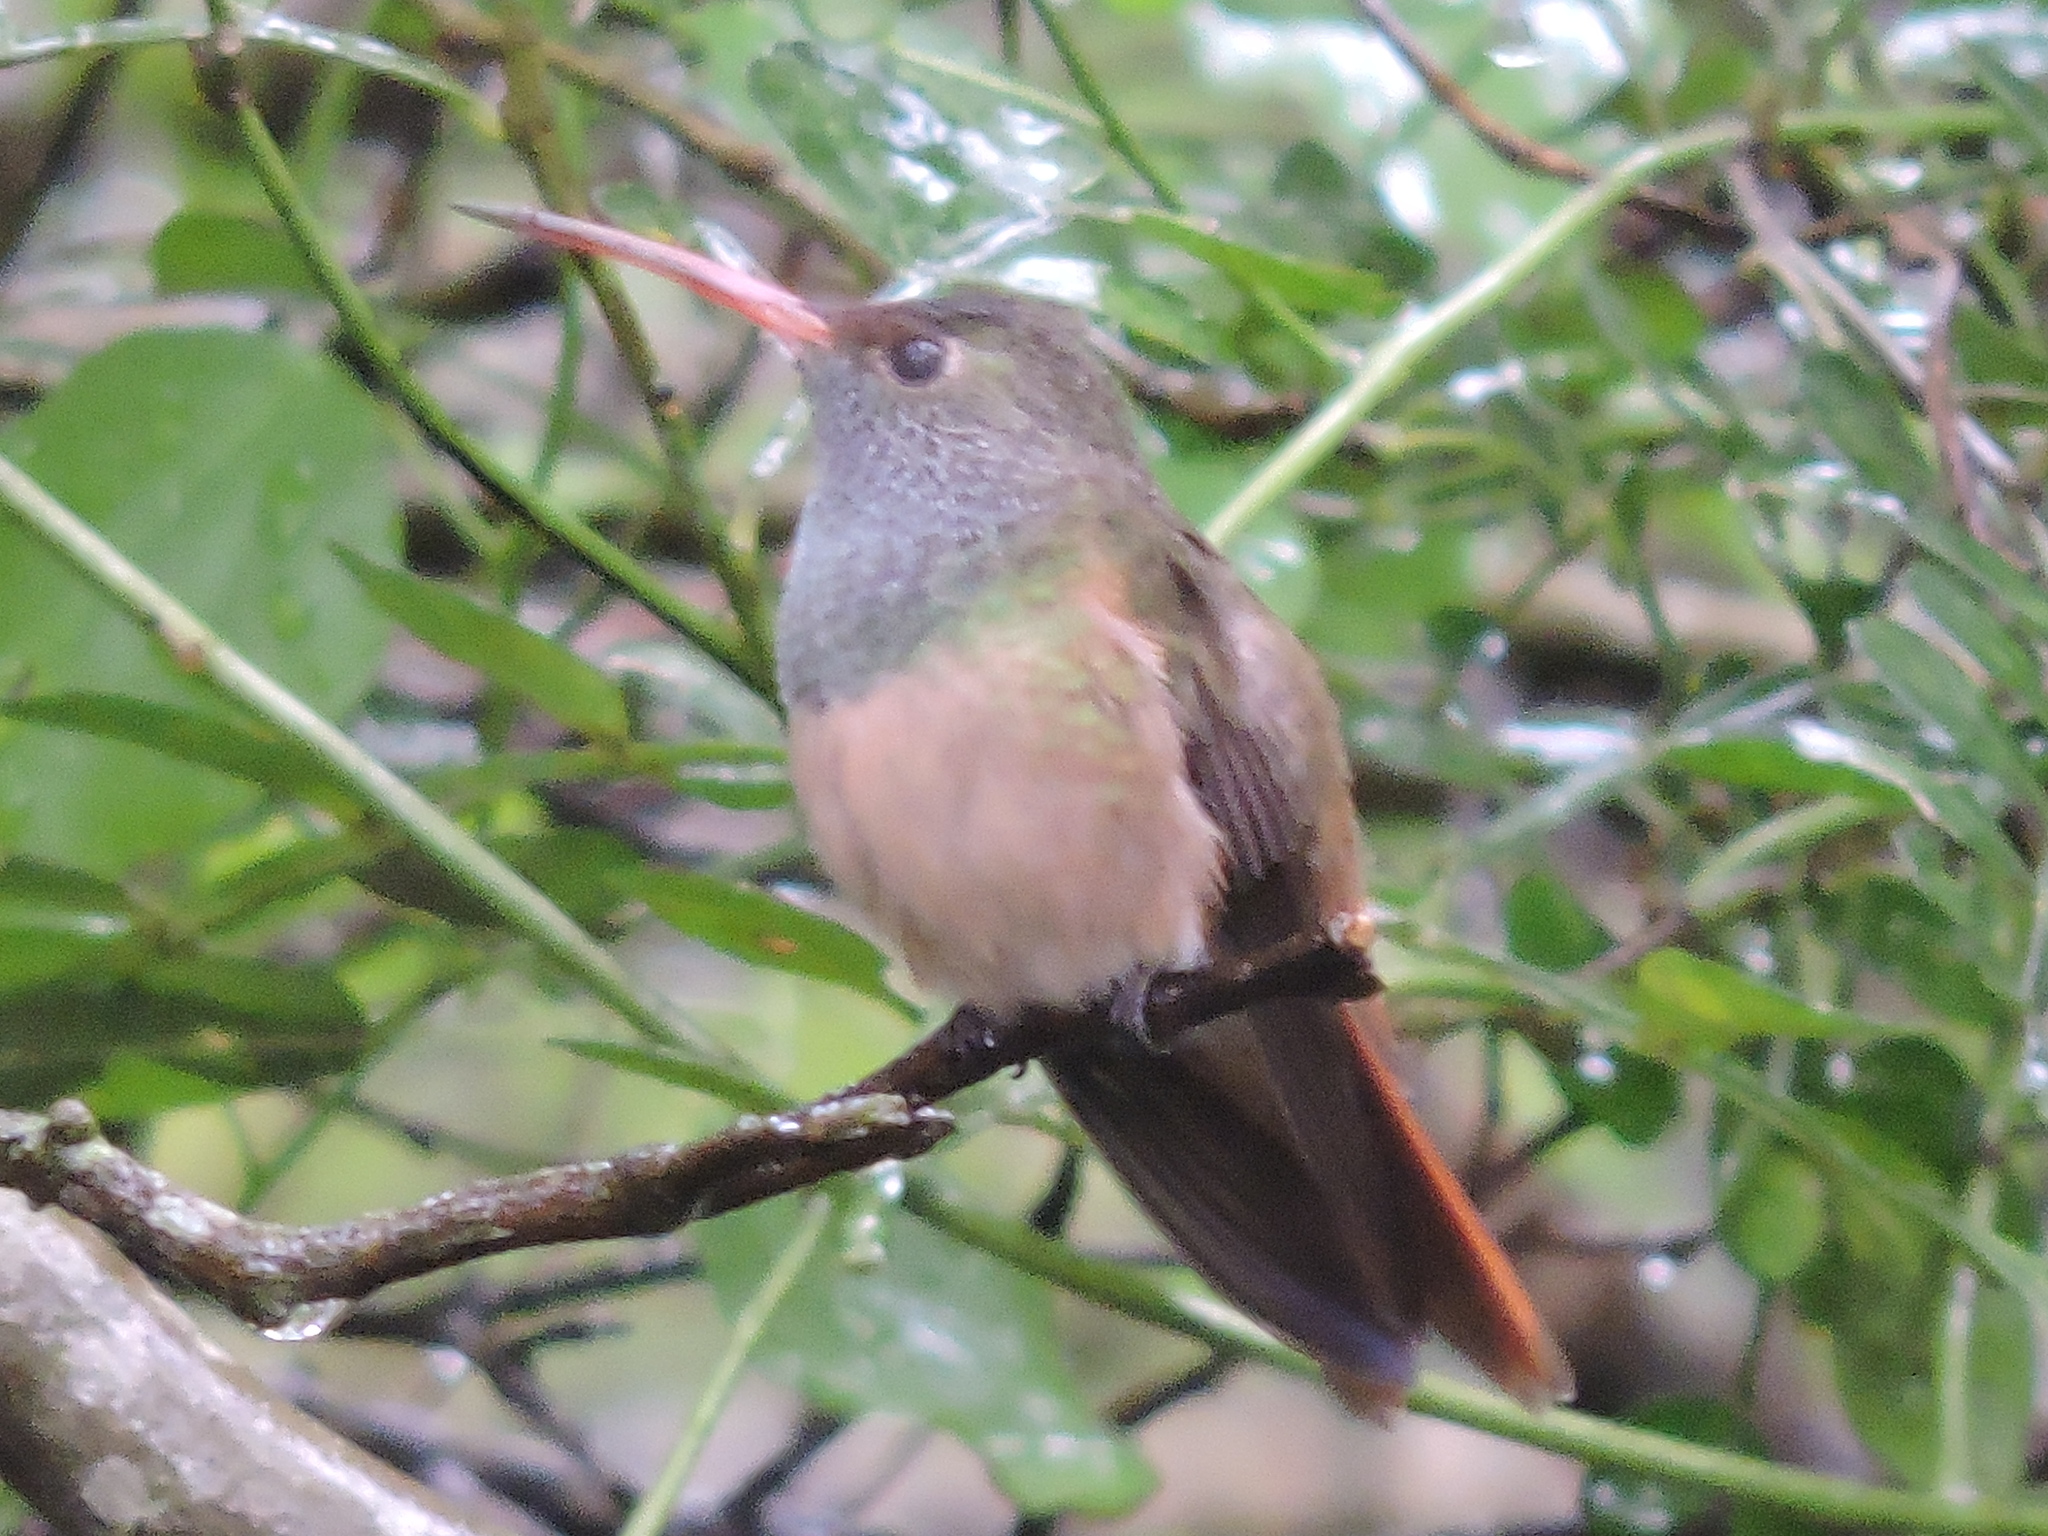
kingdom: Animalia
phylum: Chordata
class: Aves
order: Apodiformes
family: Trochilidae
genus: Amazilia
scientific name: Amazilia yucatanensis
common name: Buff-bellied hummingbird
